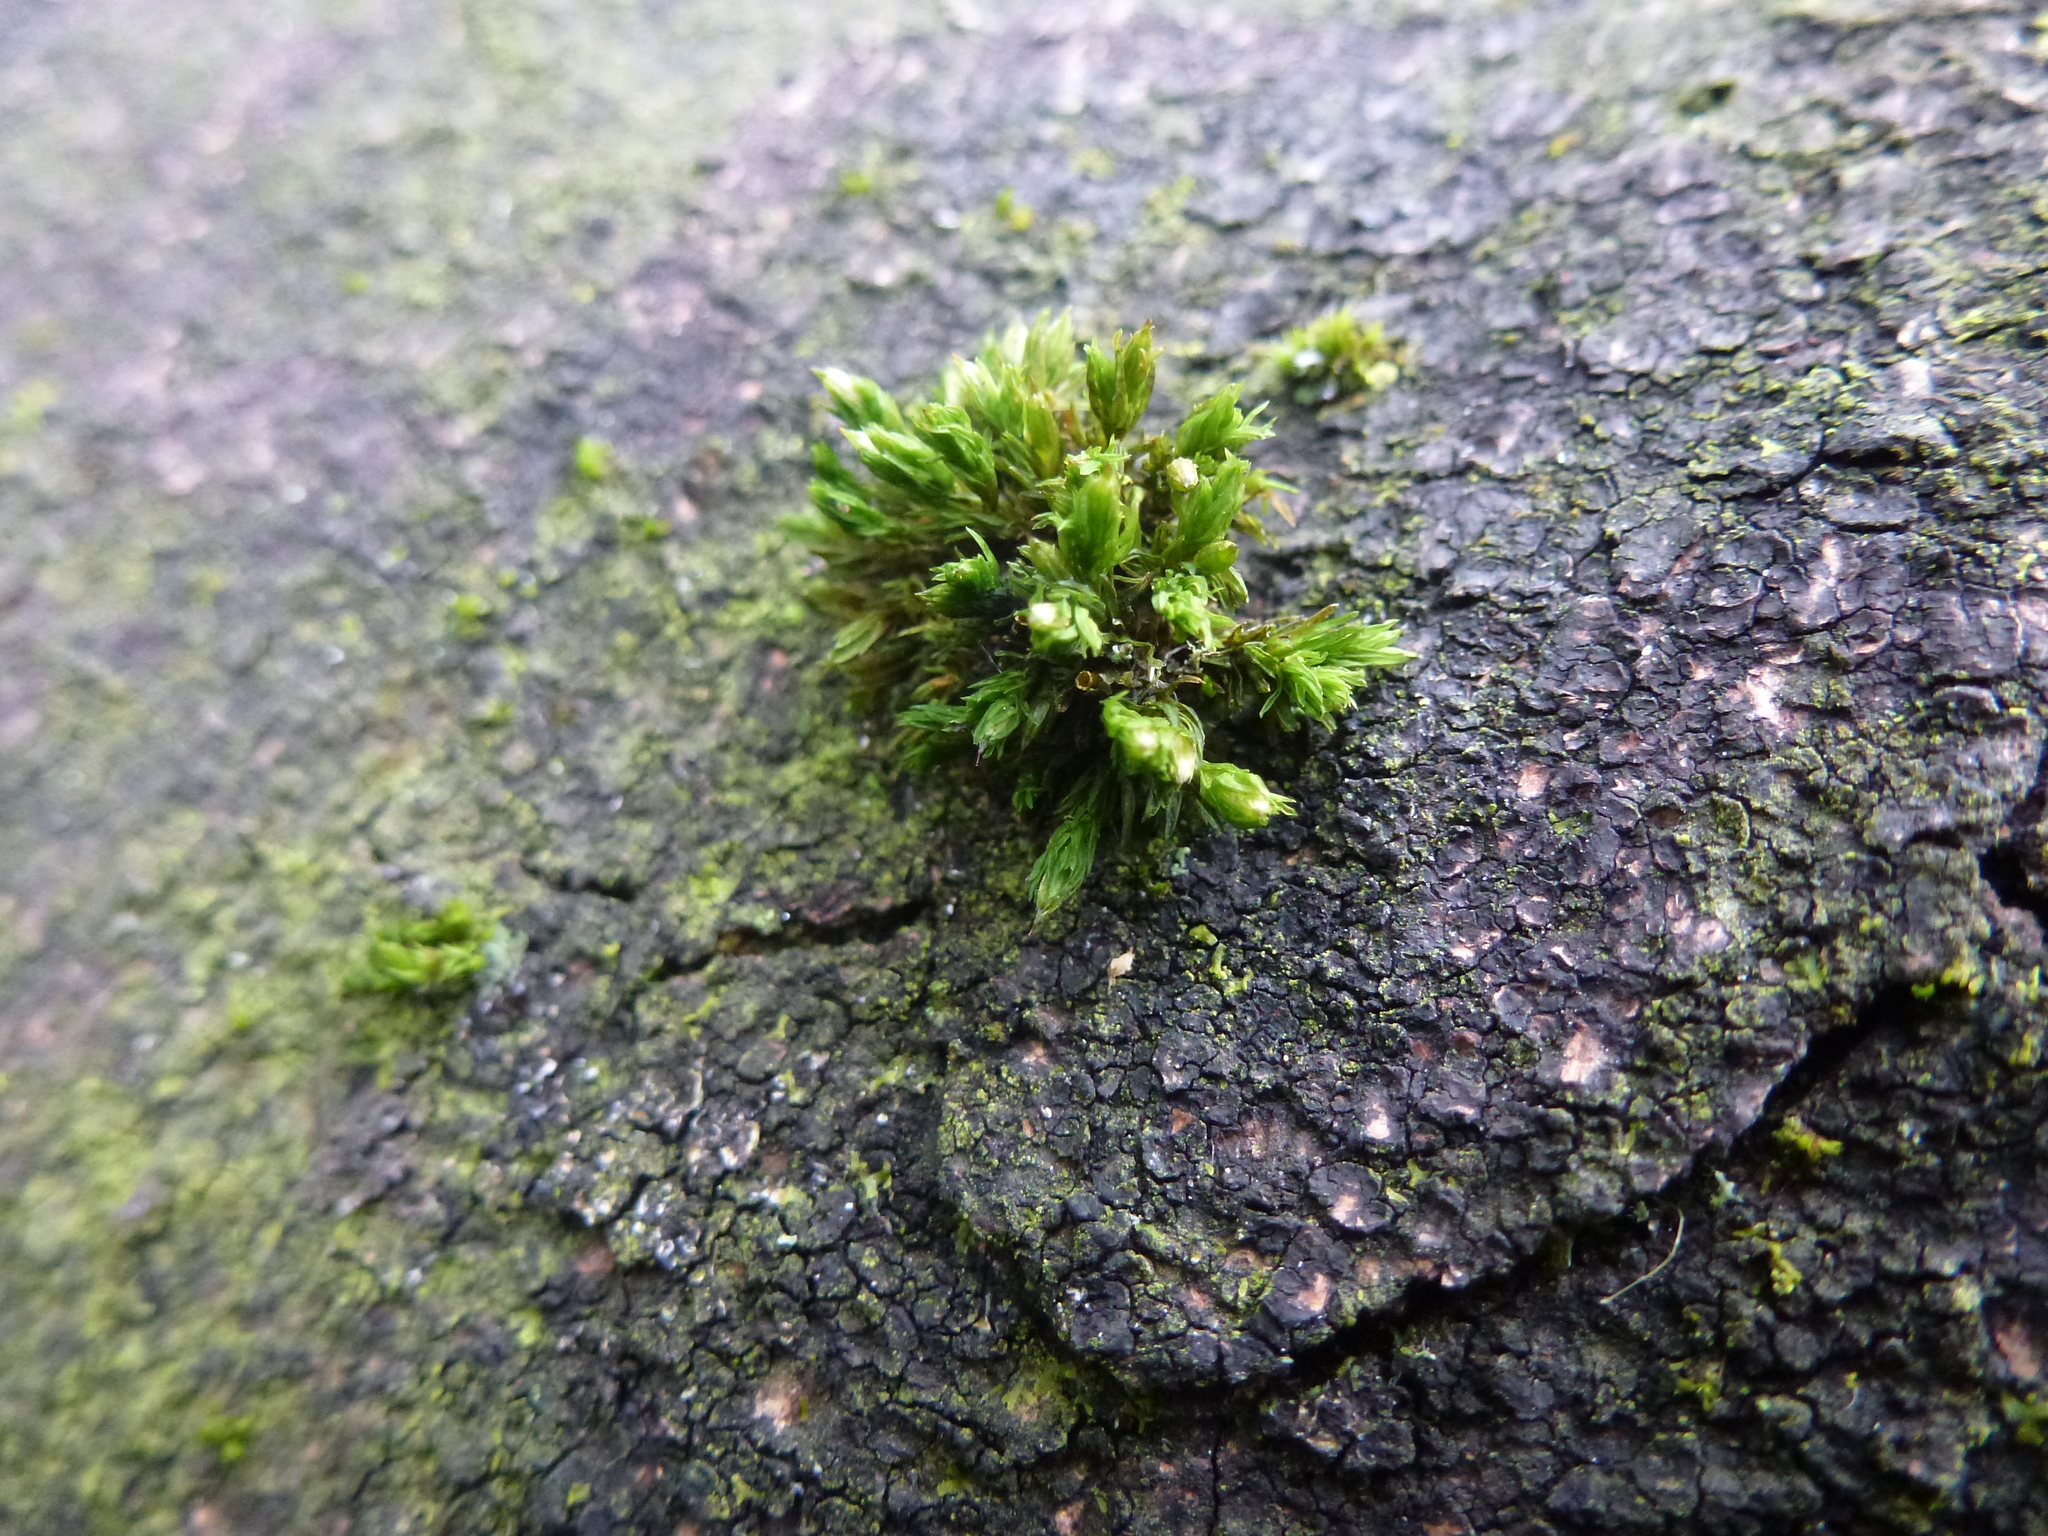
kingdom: Plantae
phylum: Bryophyta
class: Bryopsida
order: Orthotrichales
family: Orthotrichaceae
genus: Orthotrichum
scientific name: Orthotrichum stramineum
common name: Straw bristle-moss
